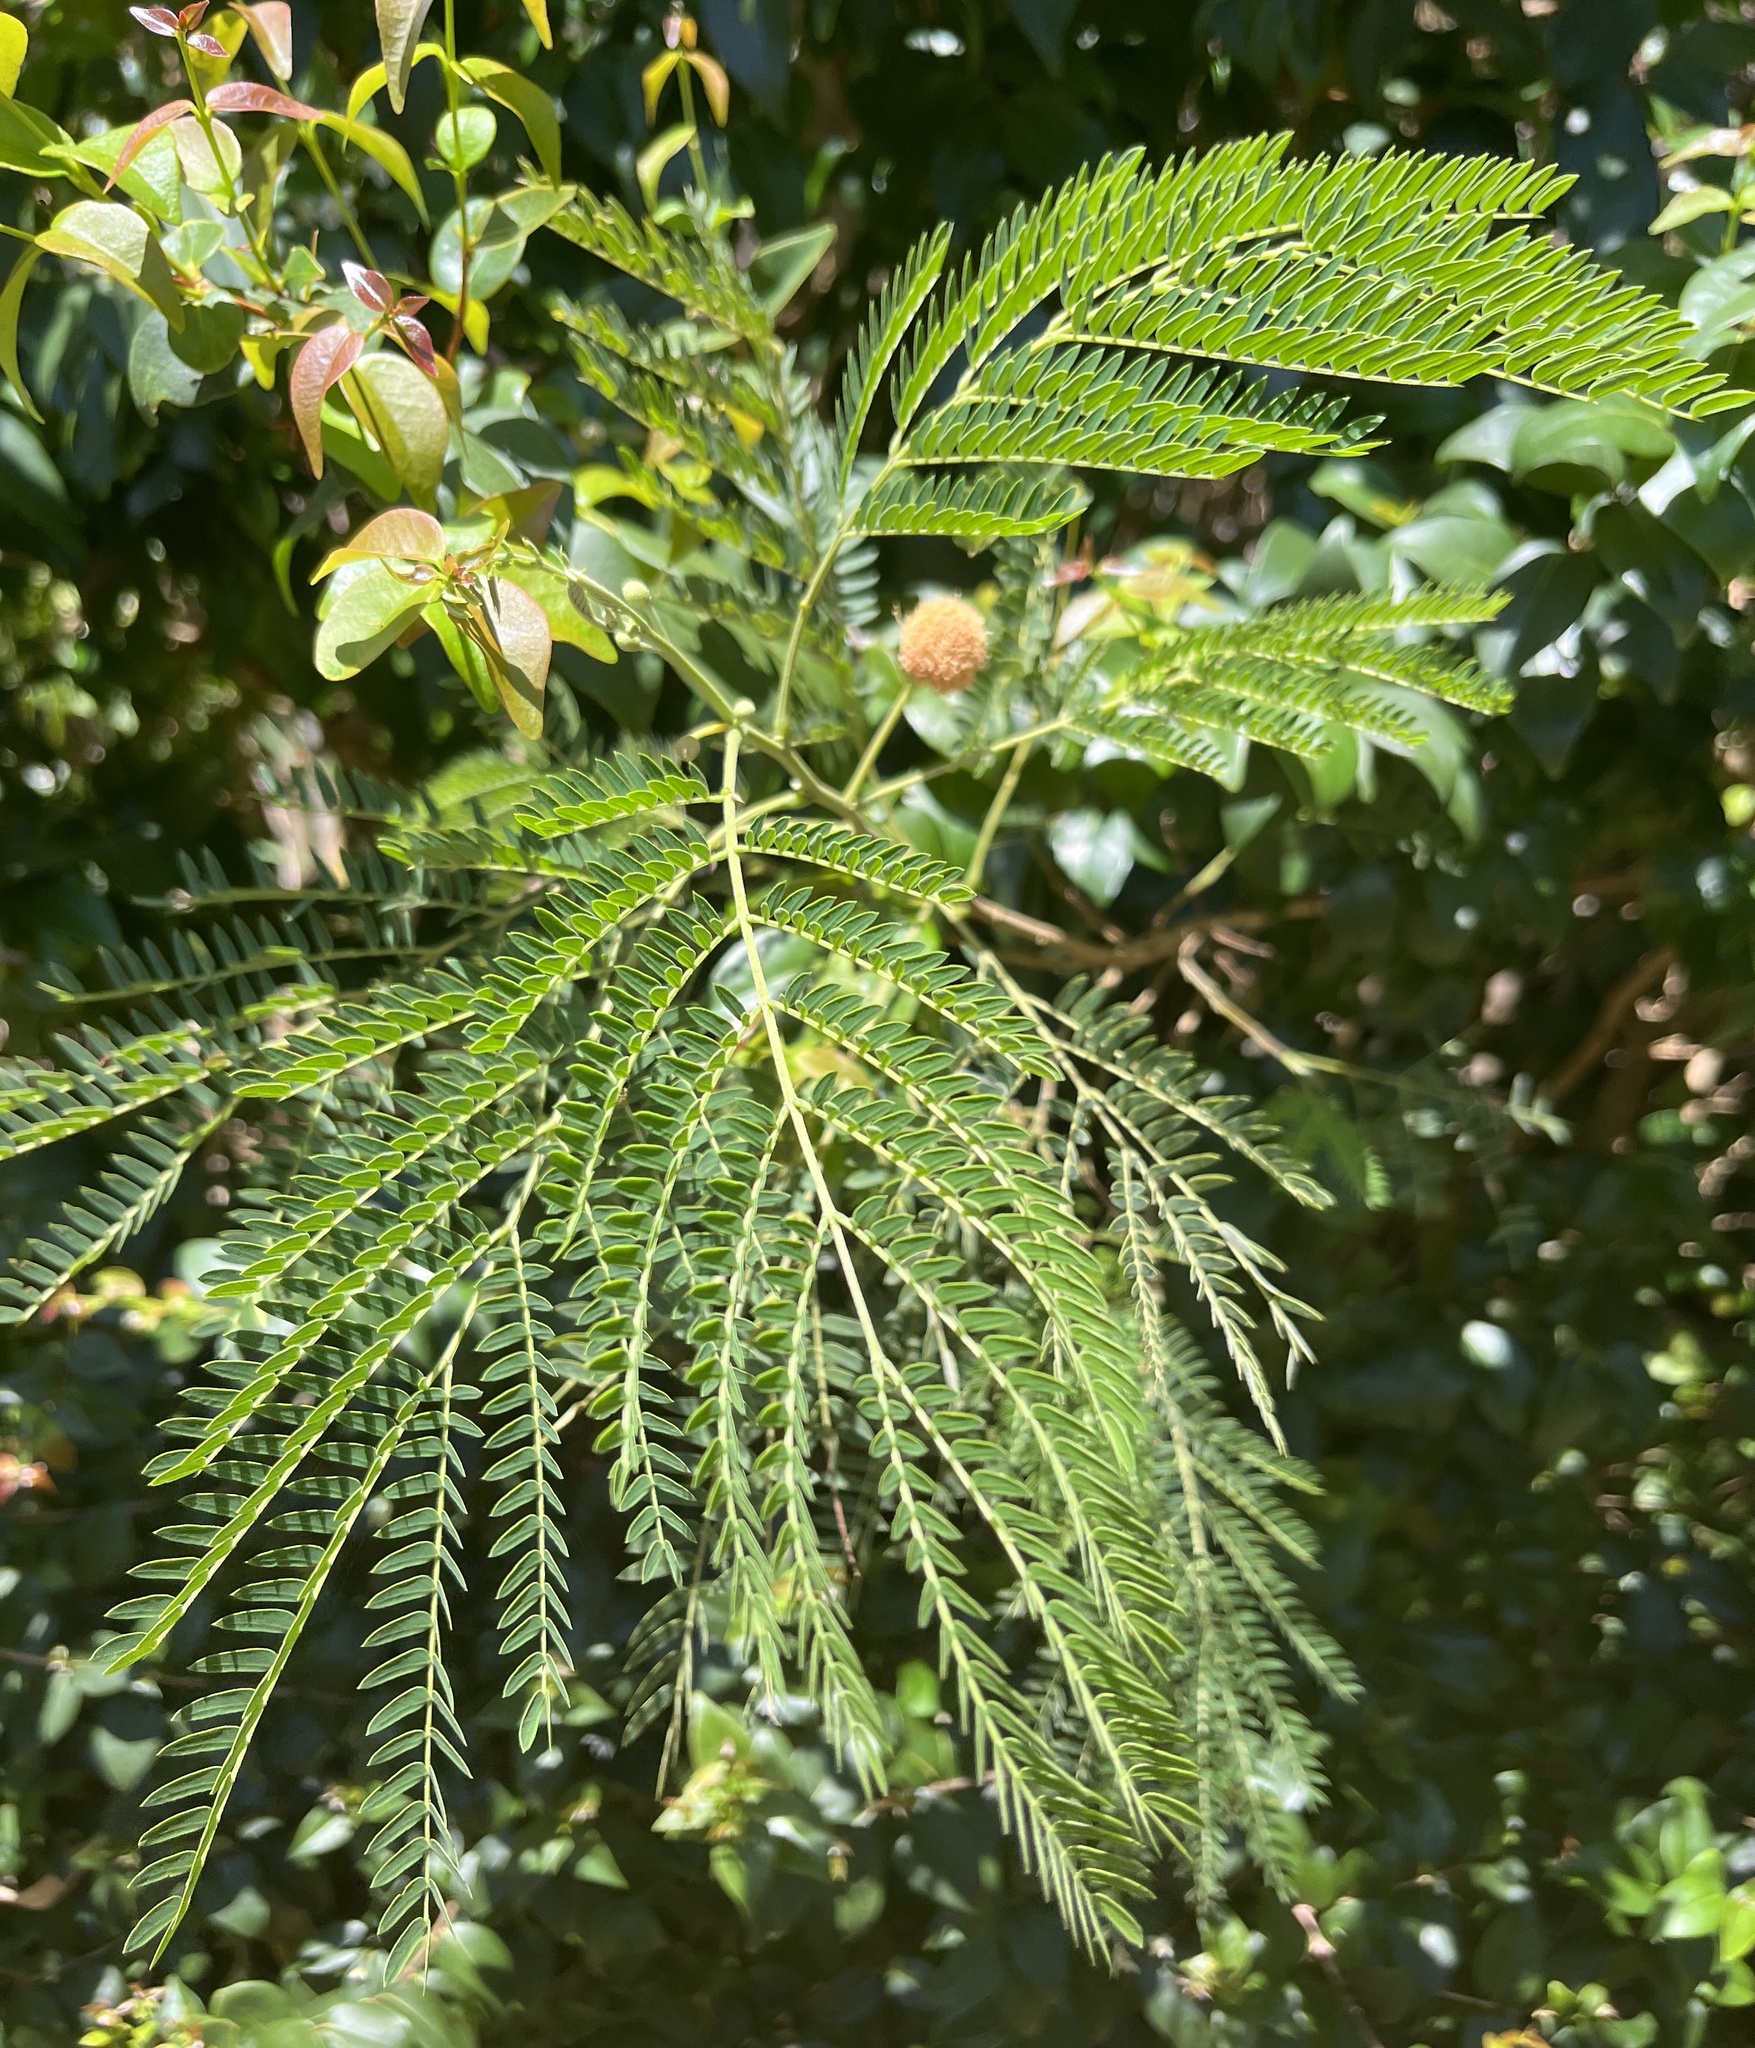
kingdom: Plantae
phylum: Tracheophyta
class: Magnoliopsida
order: Fabales
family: Fabaceae
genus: Leucaena
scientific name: Leucaena leucocephala
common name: White leadtree
